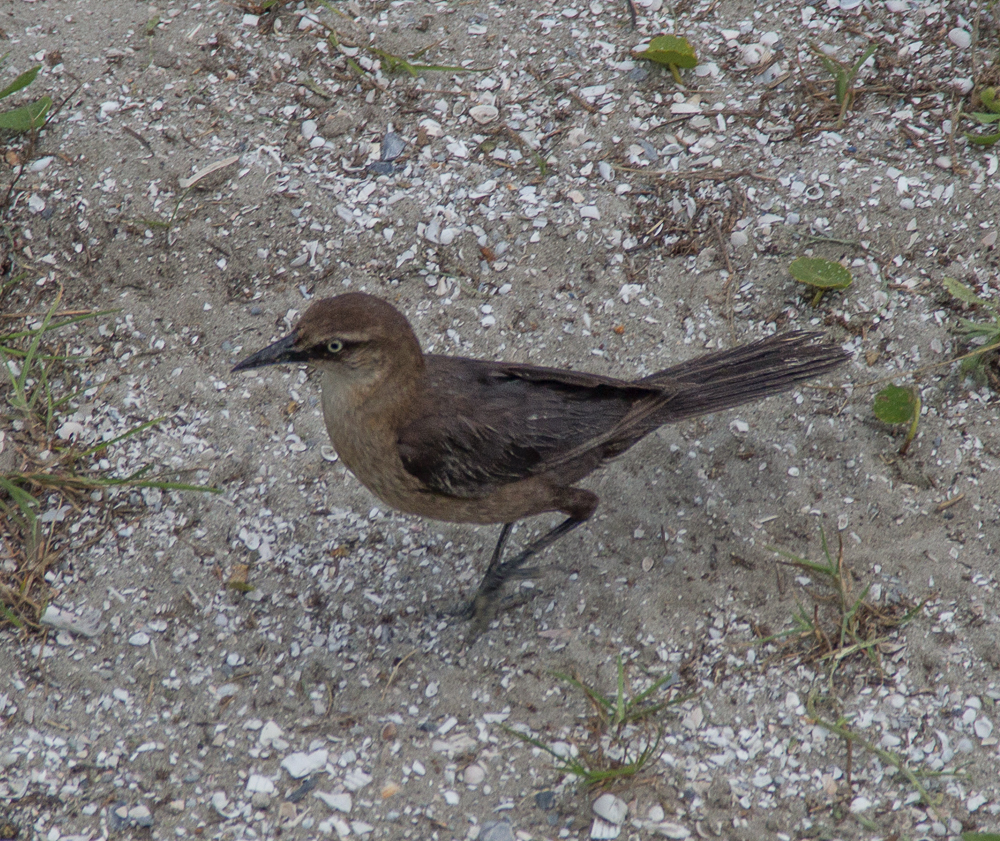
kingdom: Animalia
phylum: Chordata
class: Aves
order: Passeriformes
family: Icteridae
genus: Quiscalus
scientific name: Quiscalus major
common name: Boat-tailed grackle
